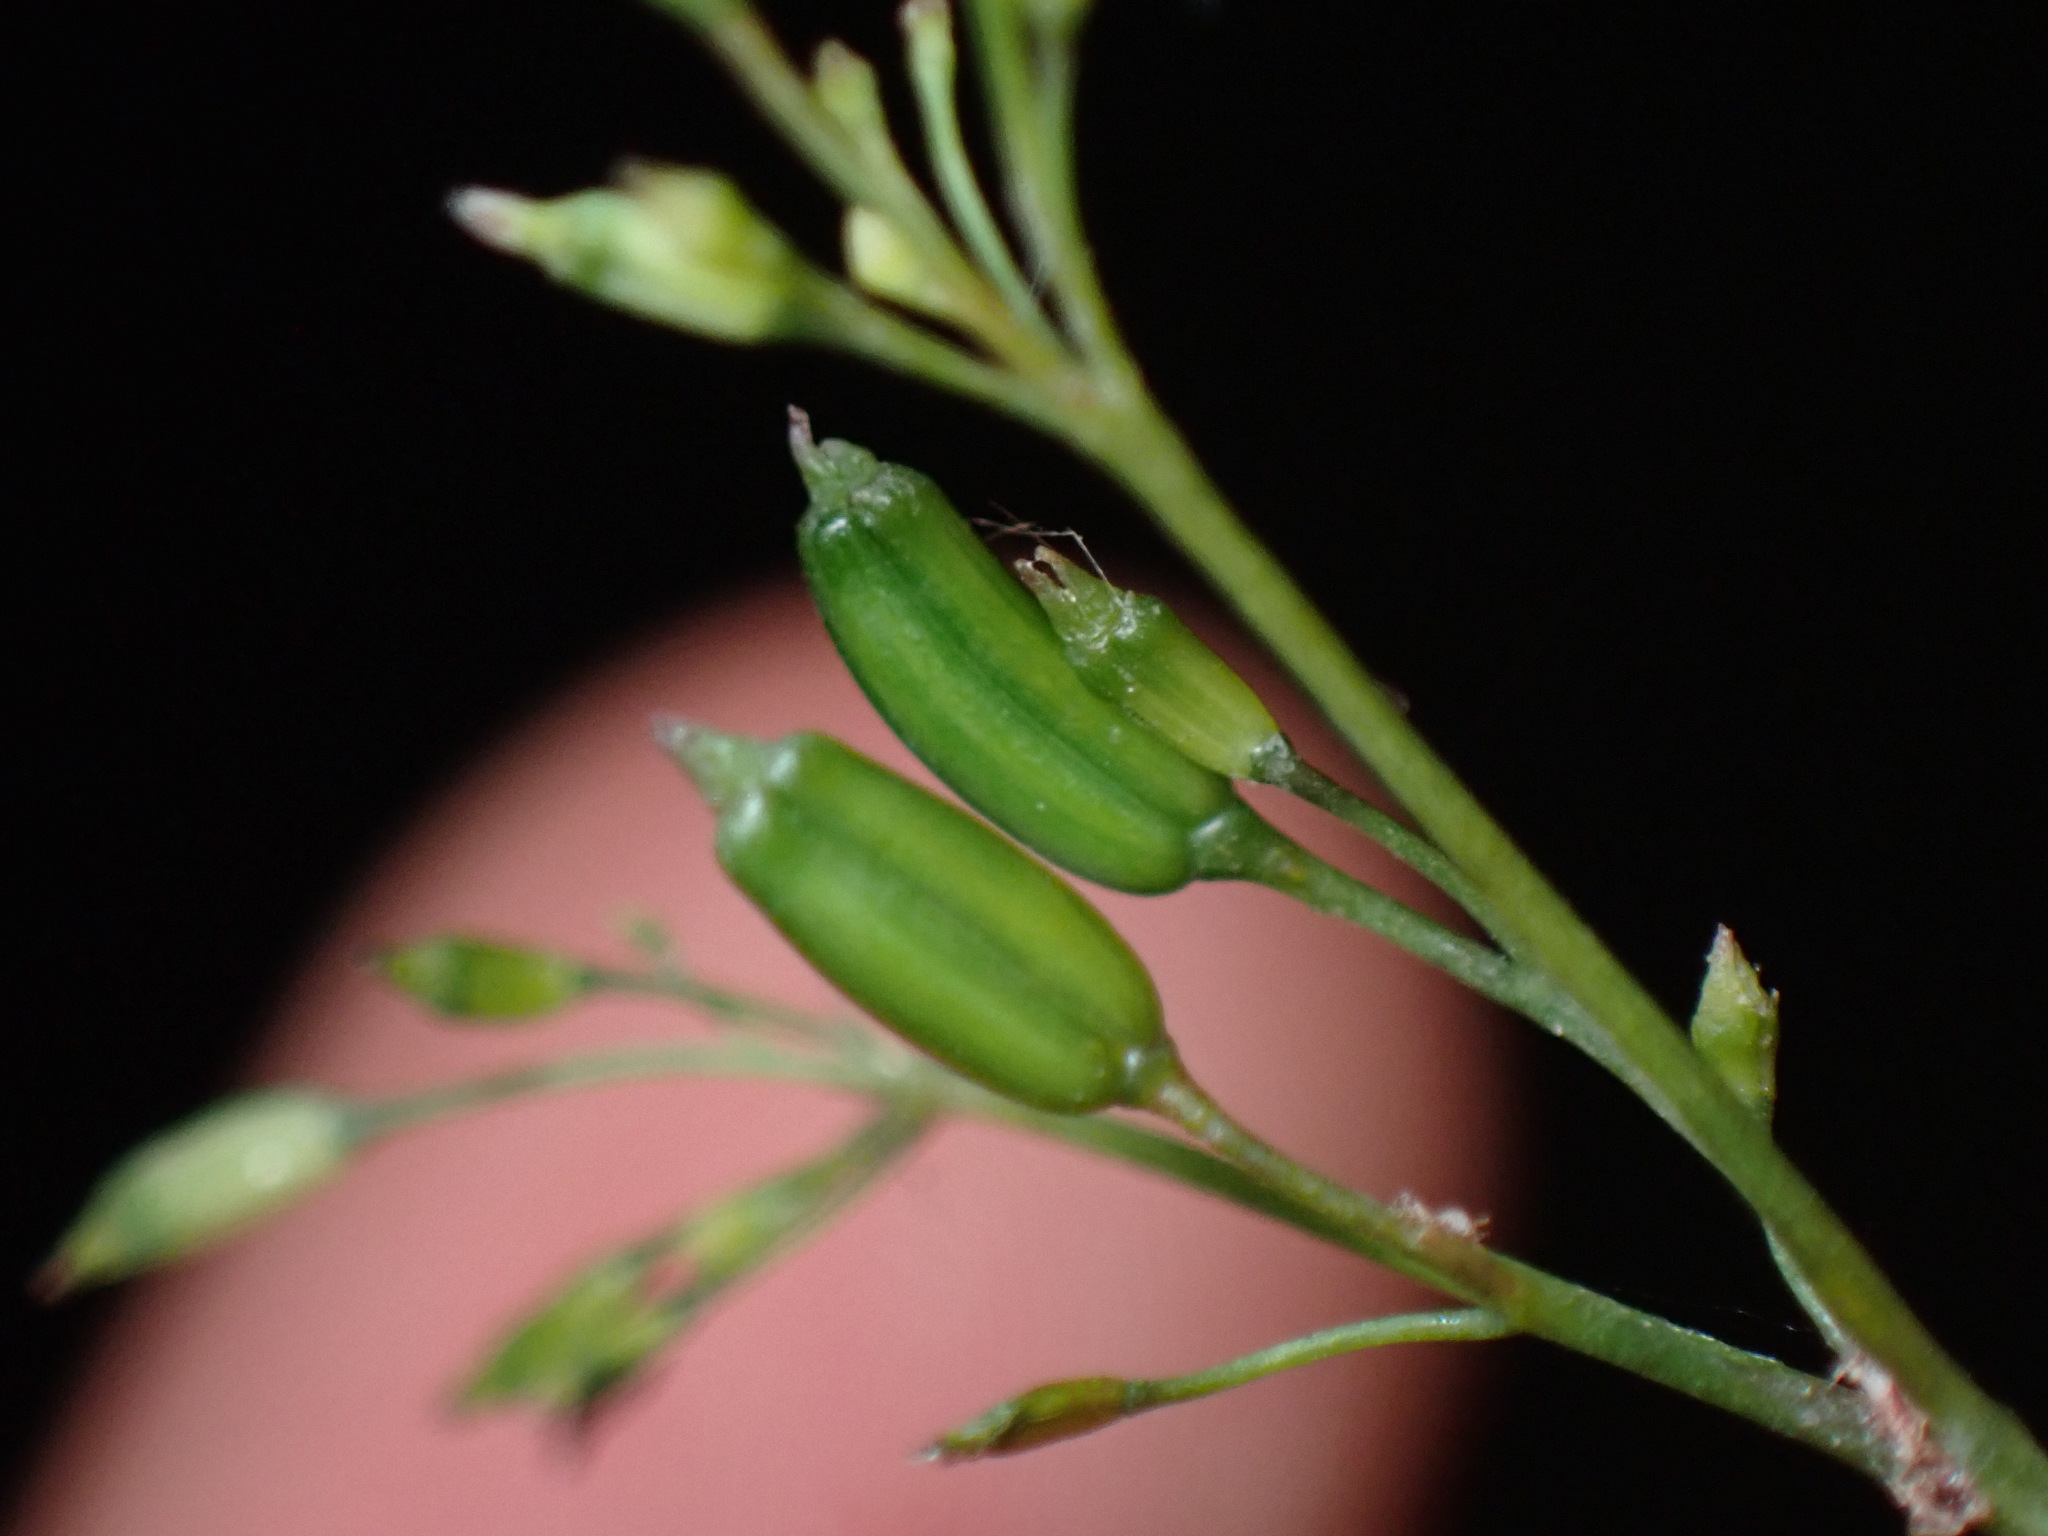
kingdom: Plantae
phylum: Tracheophyta
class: Magnoliopsida
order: Apiales
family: Apiaceae
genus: Cryptotaenia
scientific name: Cryptotaenia canadensis
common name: Honewort
